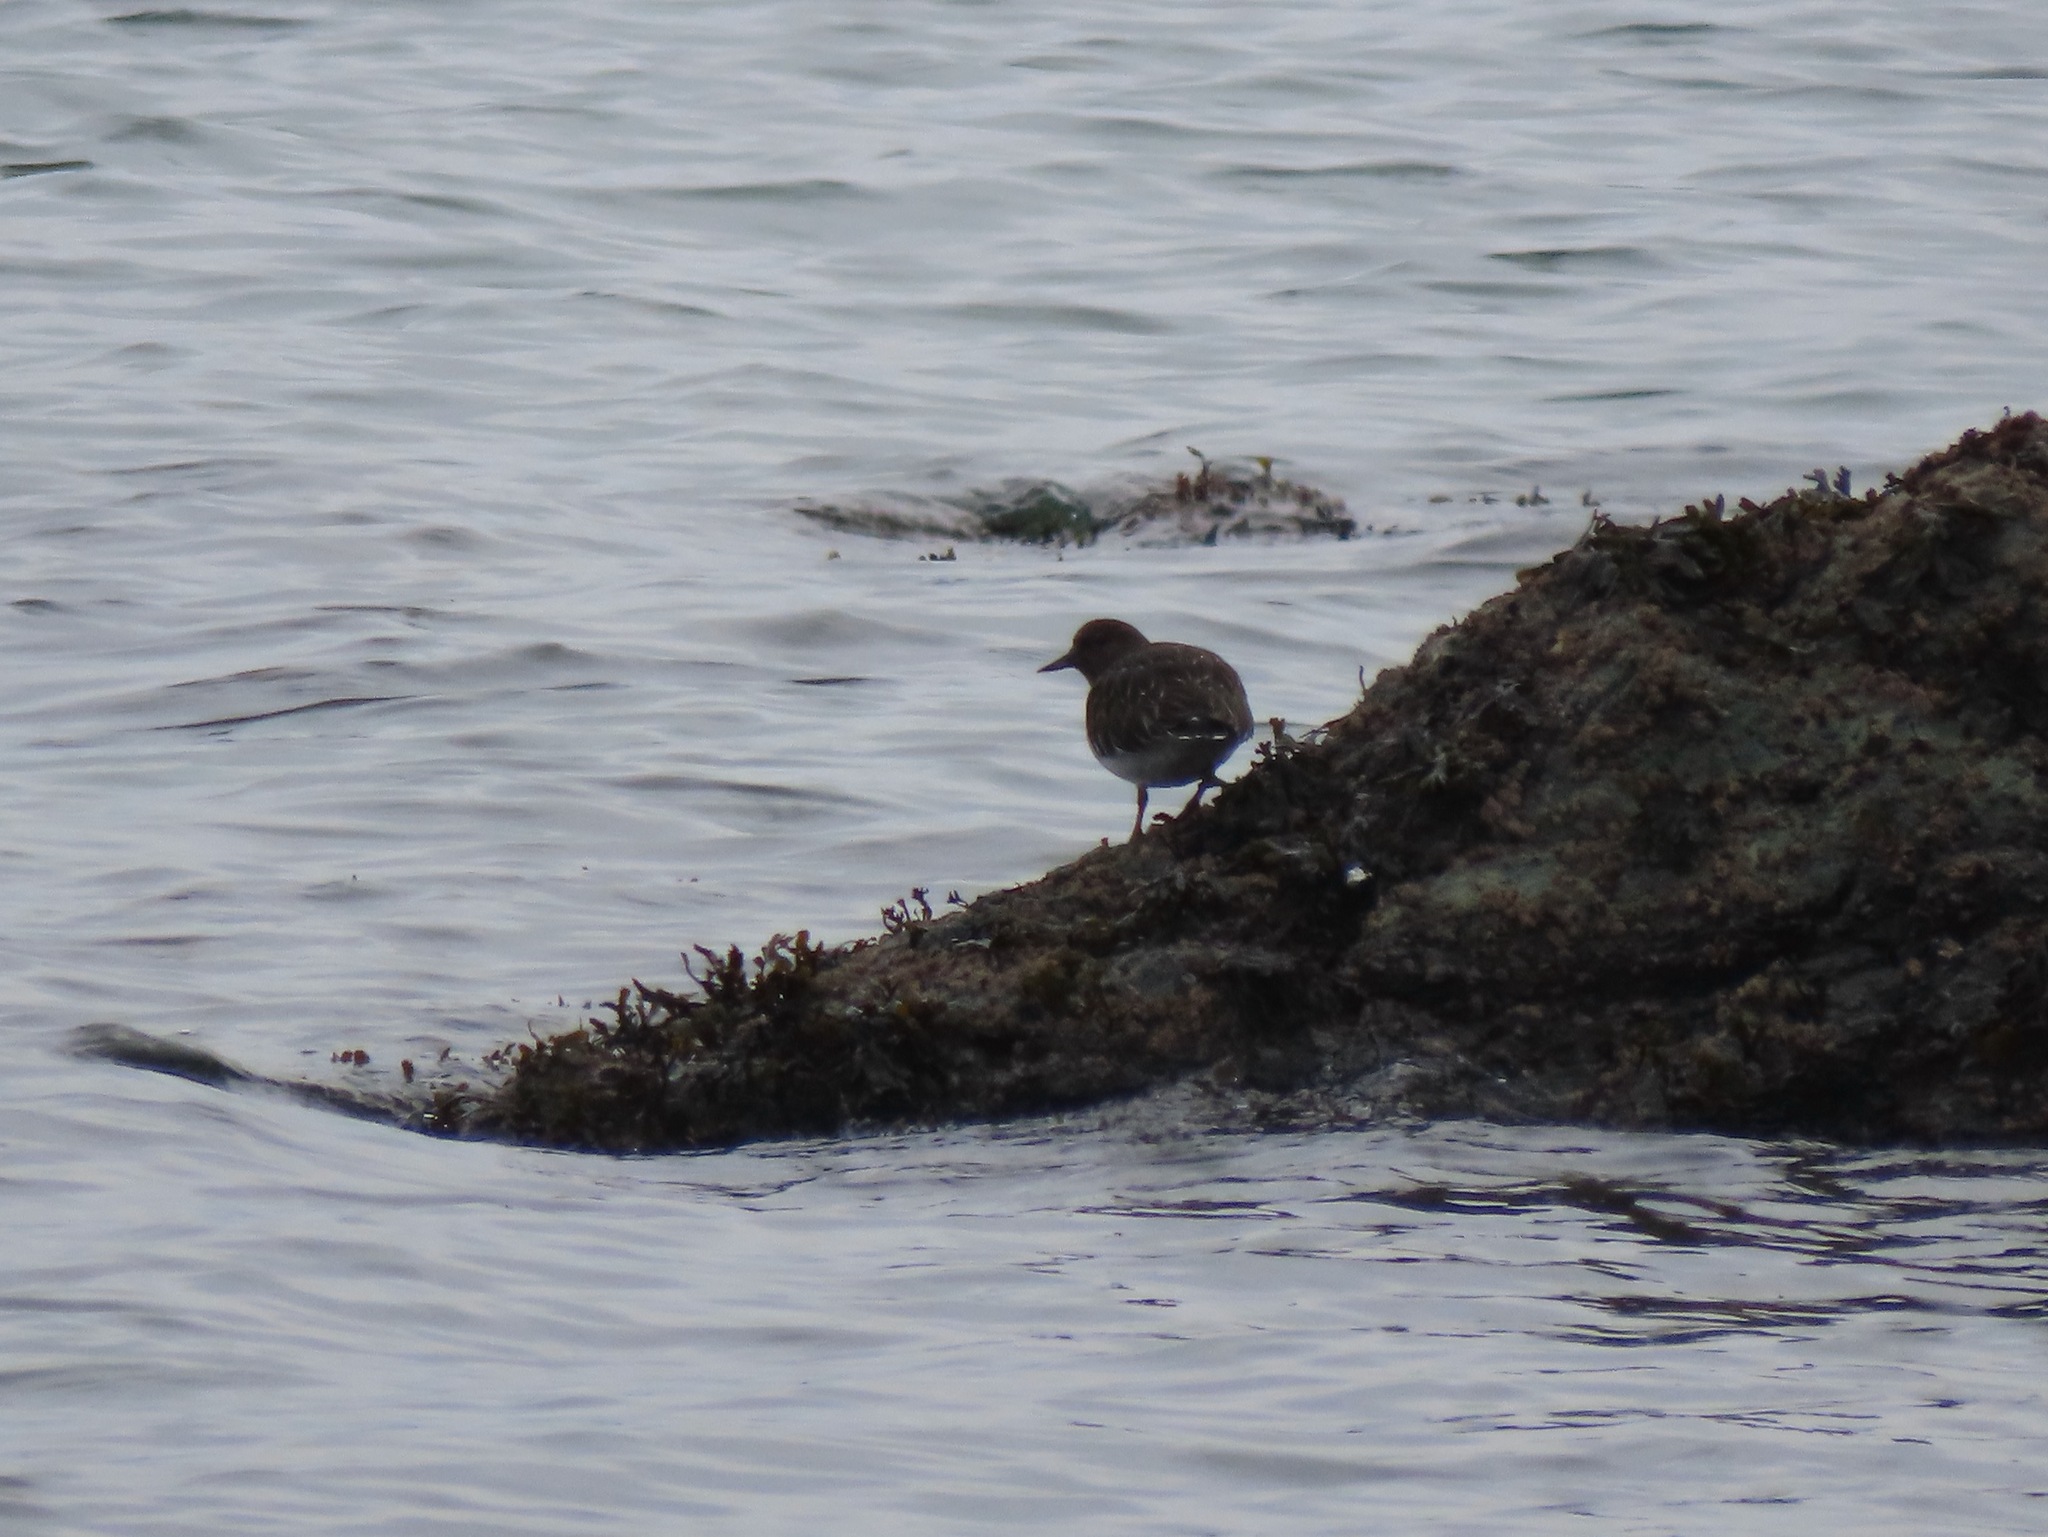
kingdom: Animalia
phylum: Chordata
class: Aves
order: Charadriiformes
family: Scolopacidae
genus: Arenaria
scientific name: Arenaria melanocephala
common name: Black turnstone
